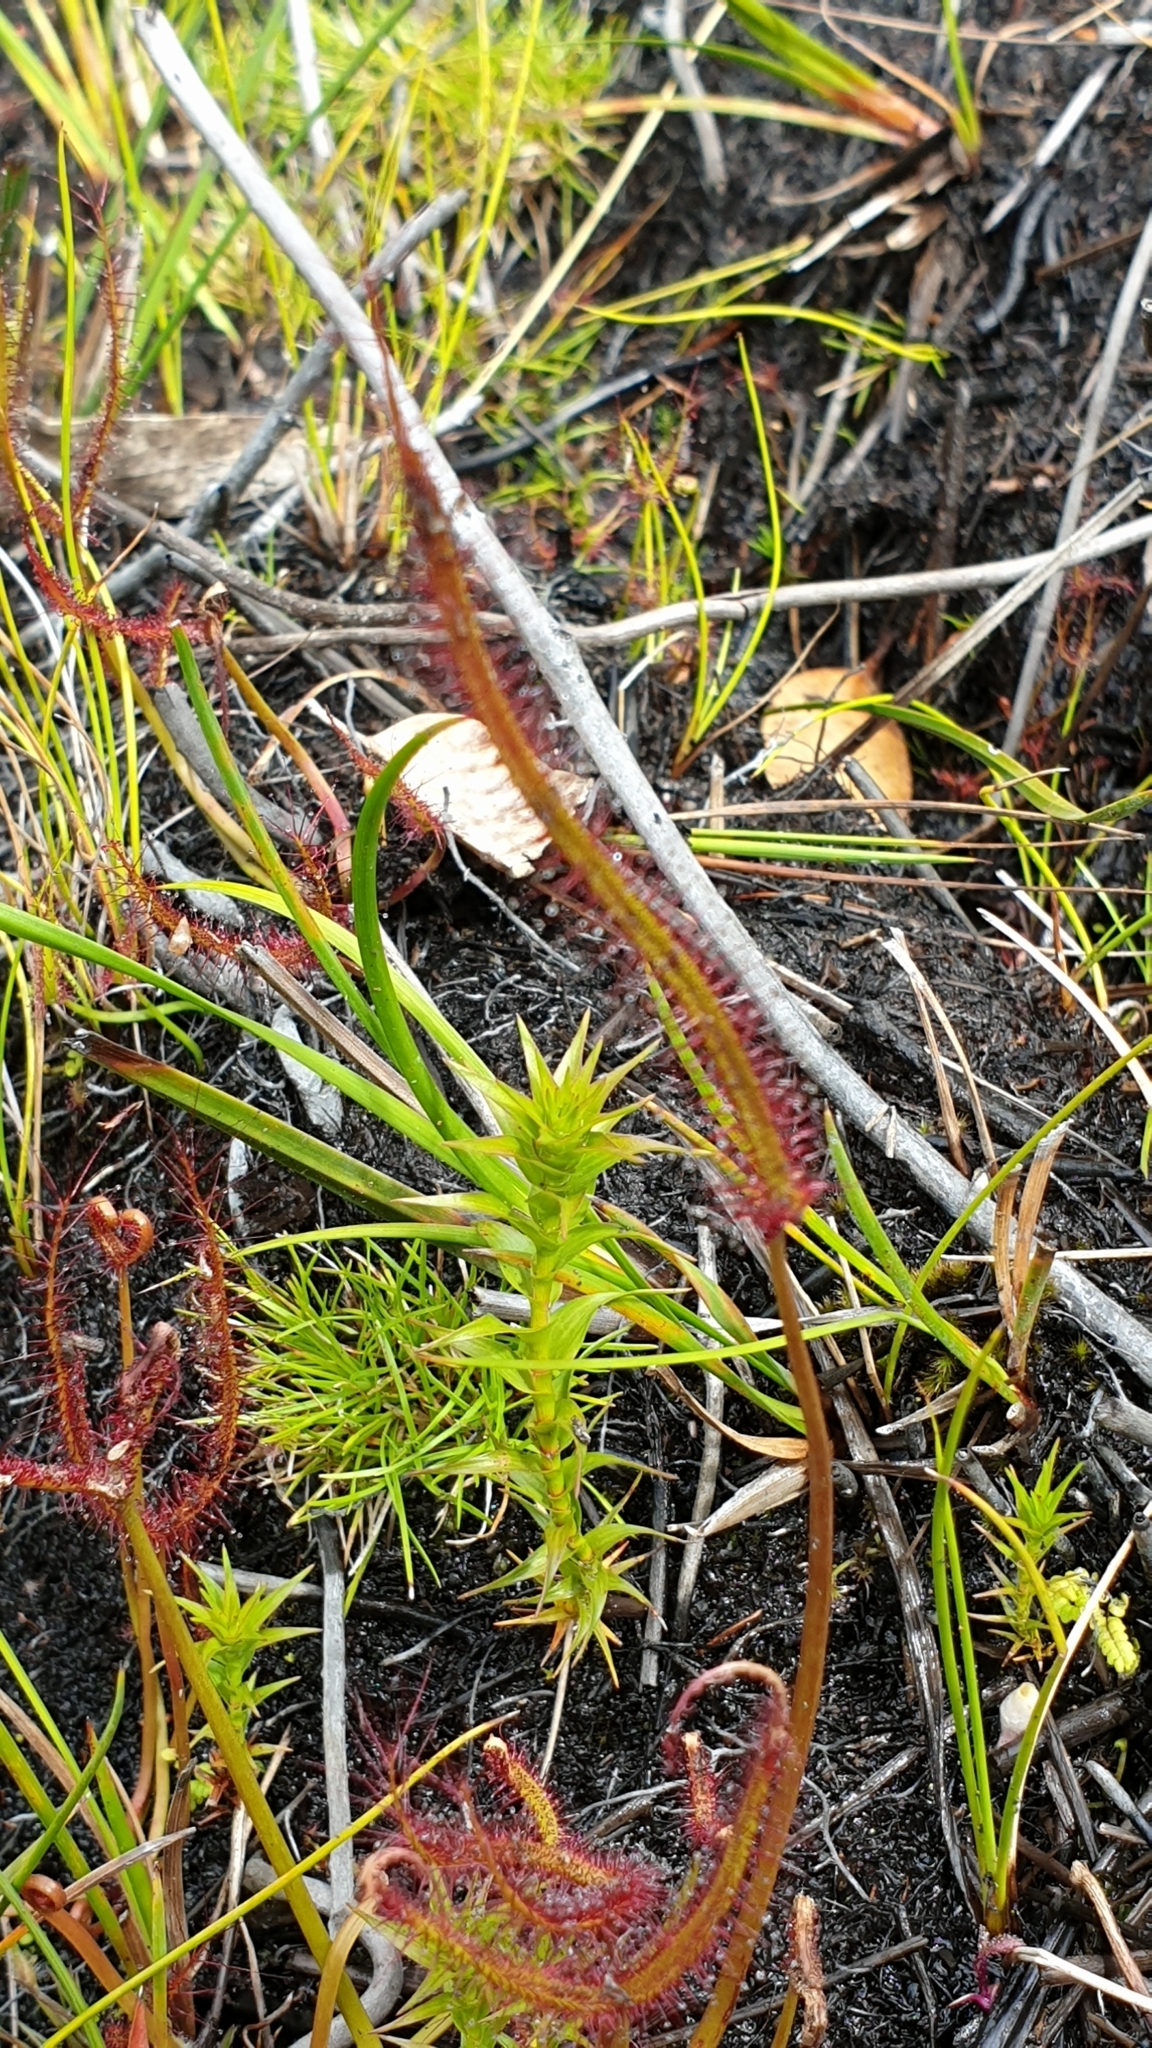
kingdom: Plantae
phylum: Tracheophyta
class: Magnoliopsida
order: Ericales
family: Ericaceae
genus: Sprengelia
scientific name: Sprengelia incarnata
